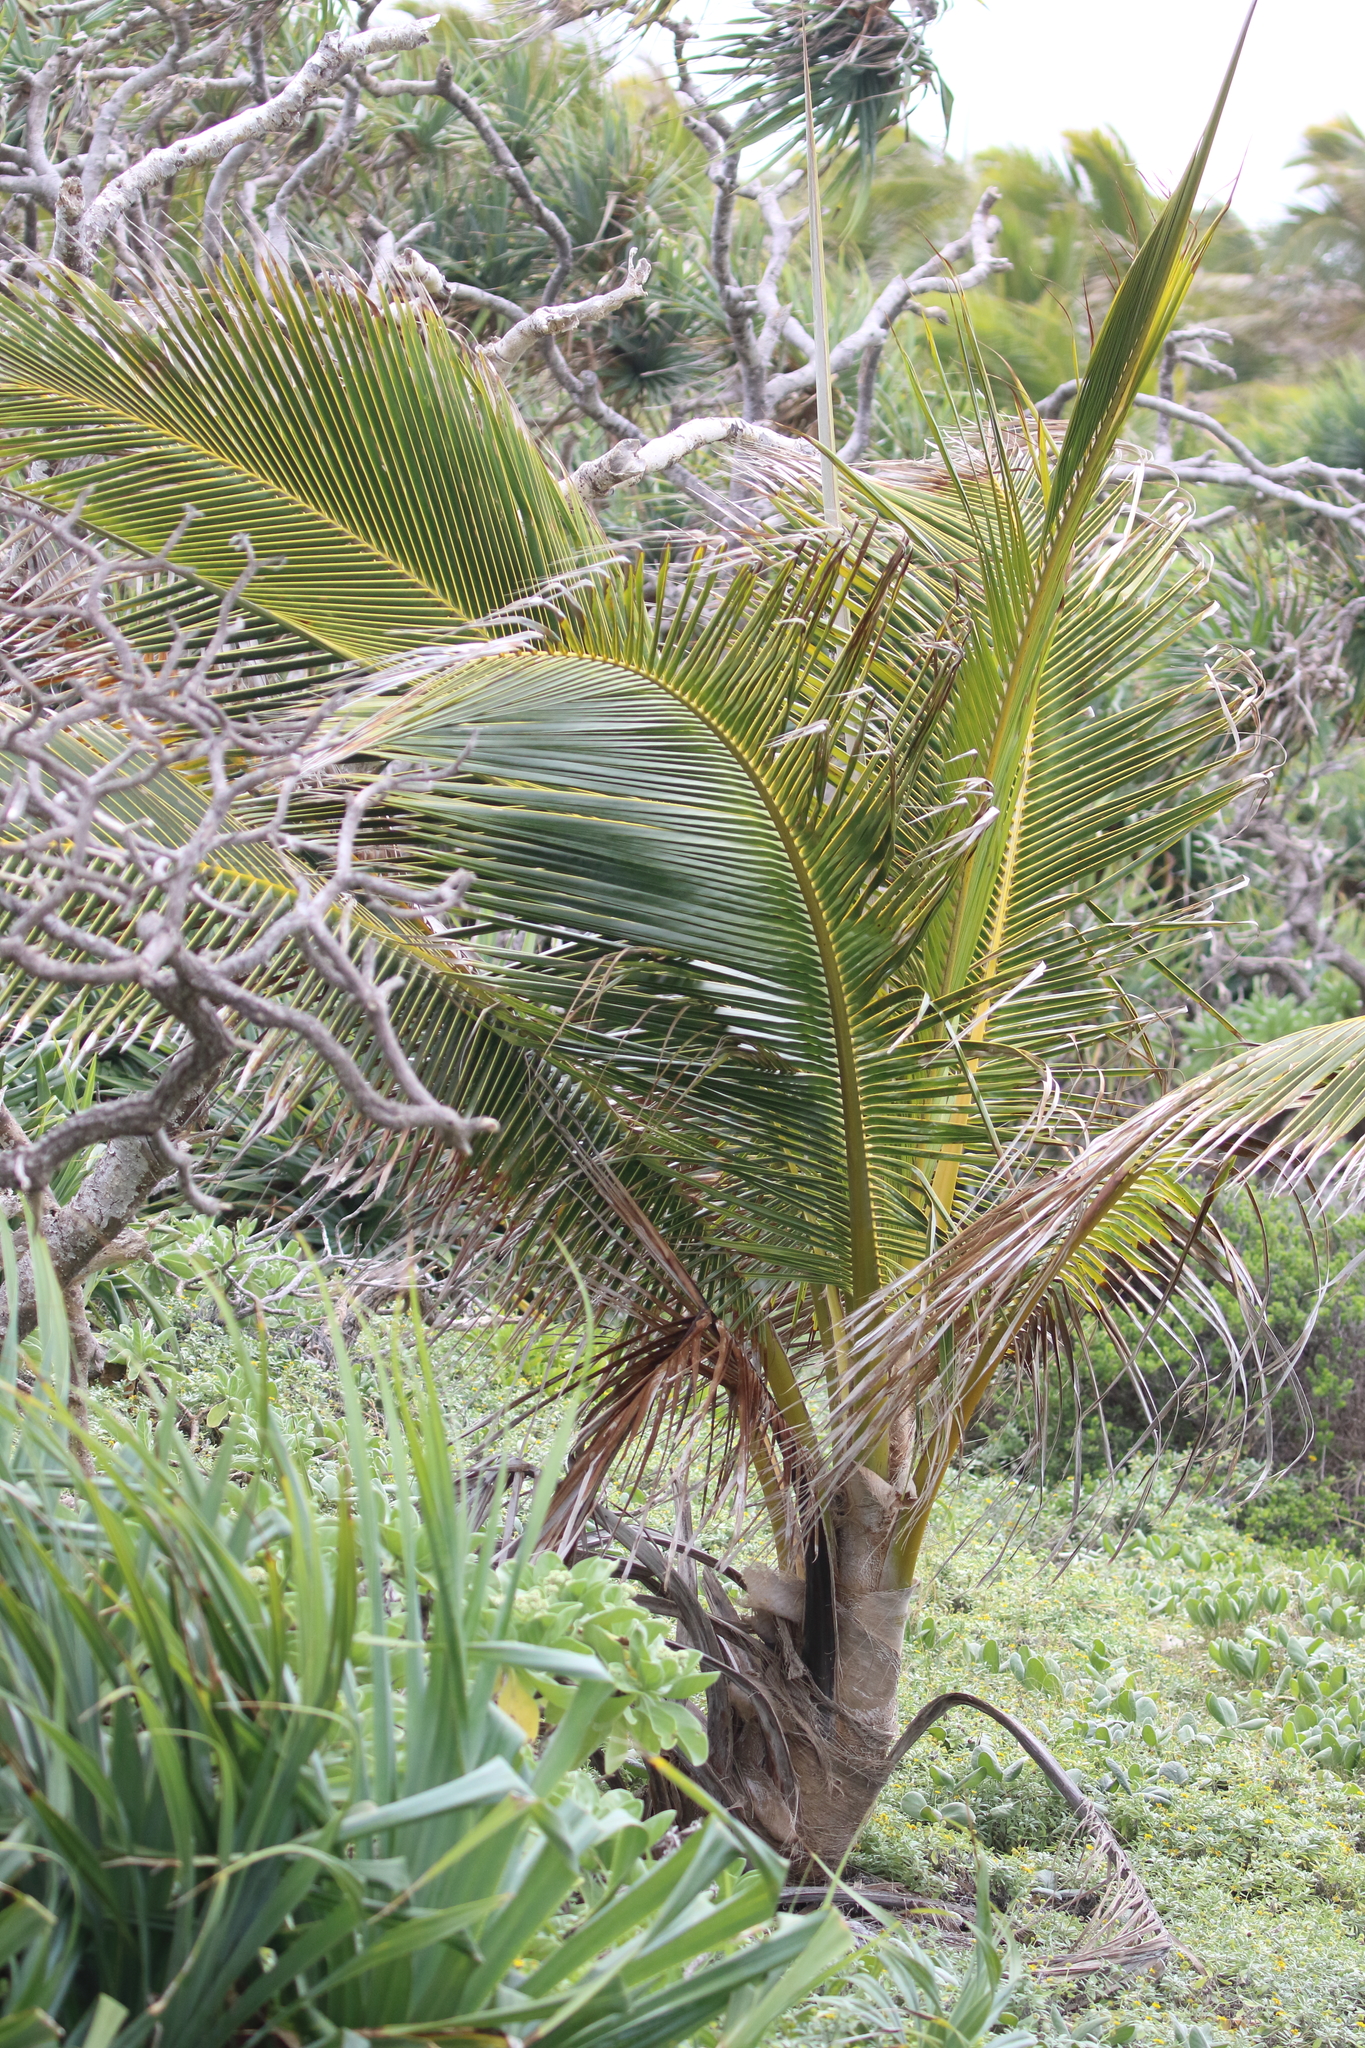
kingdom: Plantae
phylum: Tracheophyta
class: Liliopsida
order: Arecales
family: Arecaceae
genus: Cocos
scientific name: Cocos nucifera
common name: Coconut palm
